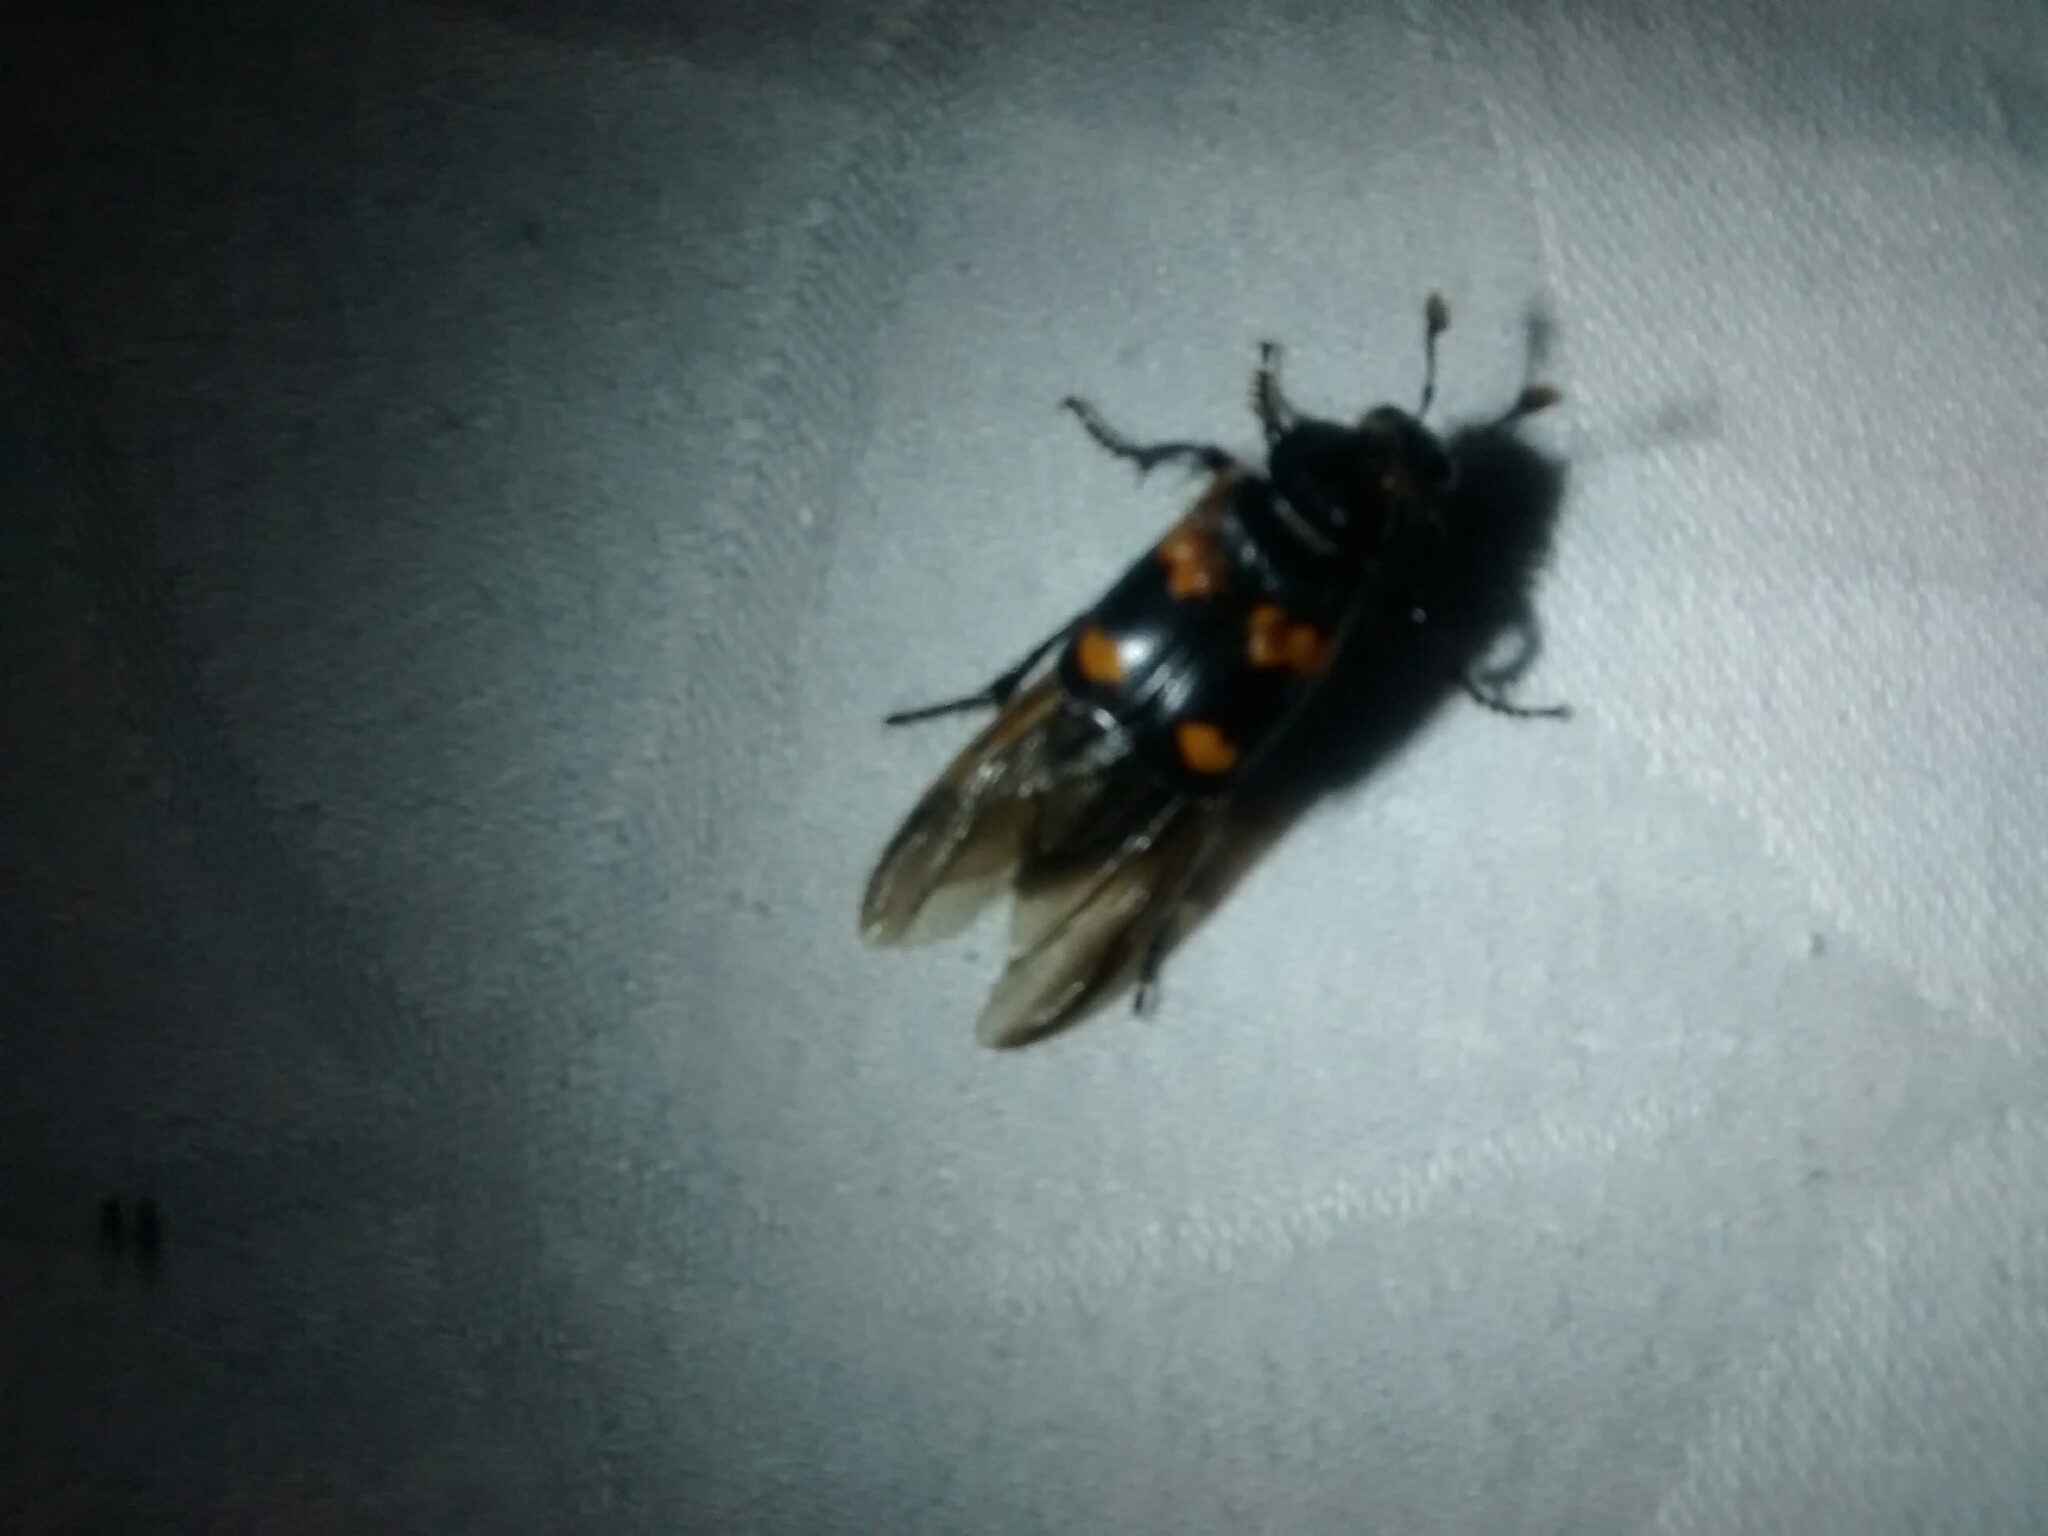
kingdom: Animalia
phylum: Arthropoda
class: Insecta
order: Coleoptera
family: Staphylinidae
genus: Nicrophorus
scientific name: Nicrophorus orbicollis
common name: Roundneck sexton beetle
